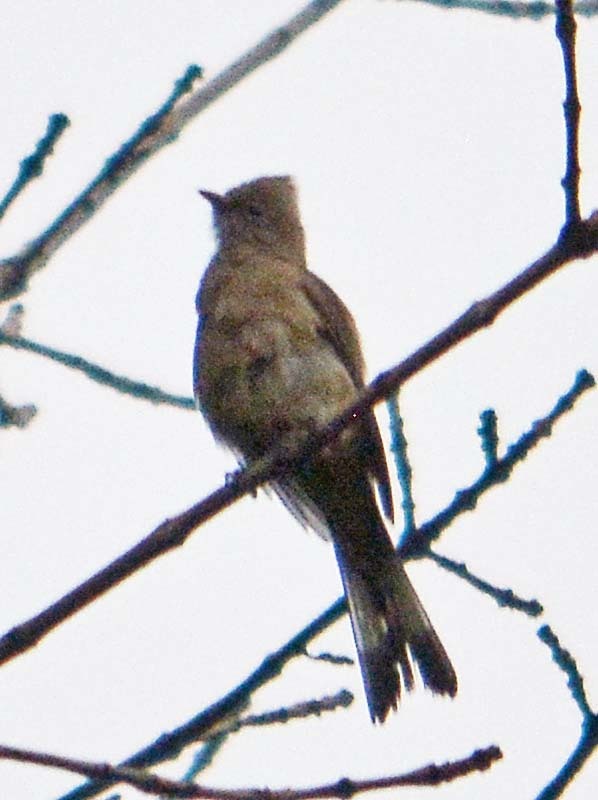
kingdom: Animalia
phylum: Chordata
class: Aves
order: Passeriformes
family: Ptilogonatidae
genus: Ptilogonys
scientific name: Ptilogonys cinereus
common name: Gray silky-flycatcher
